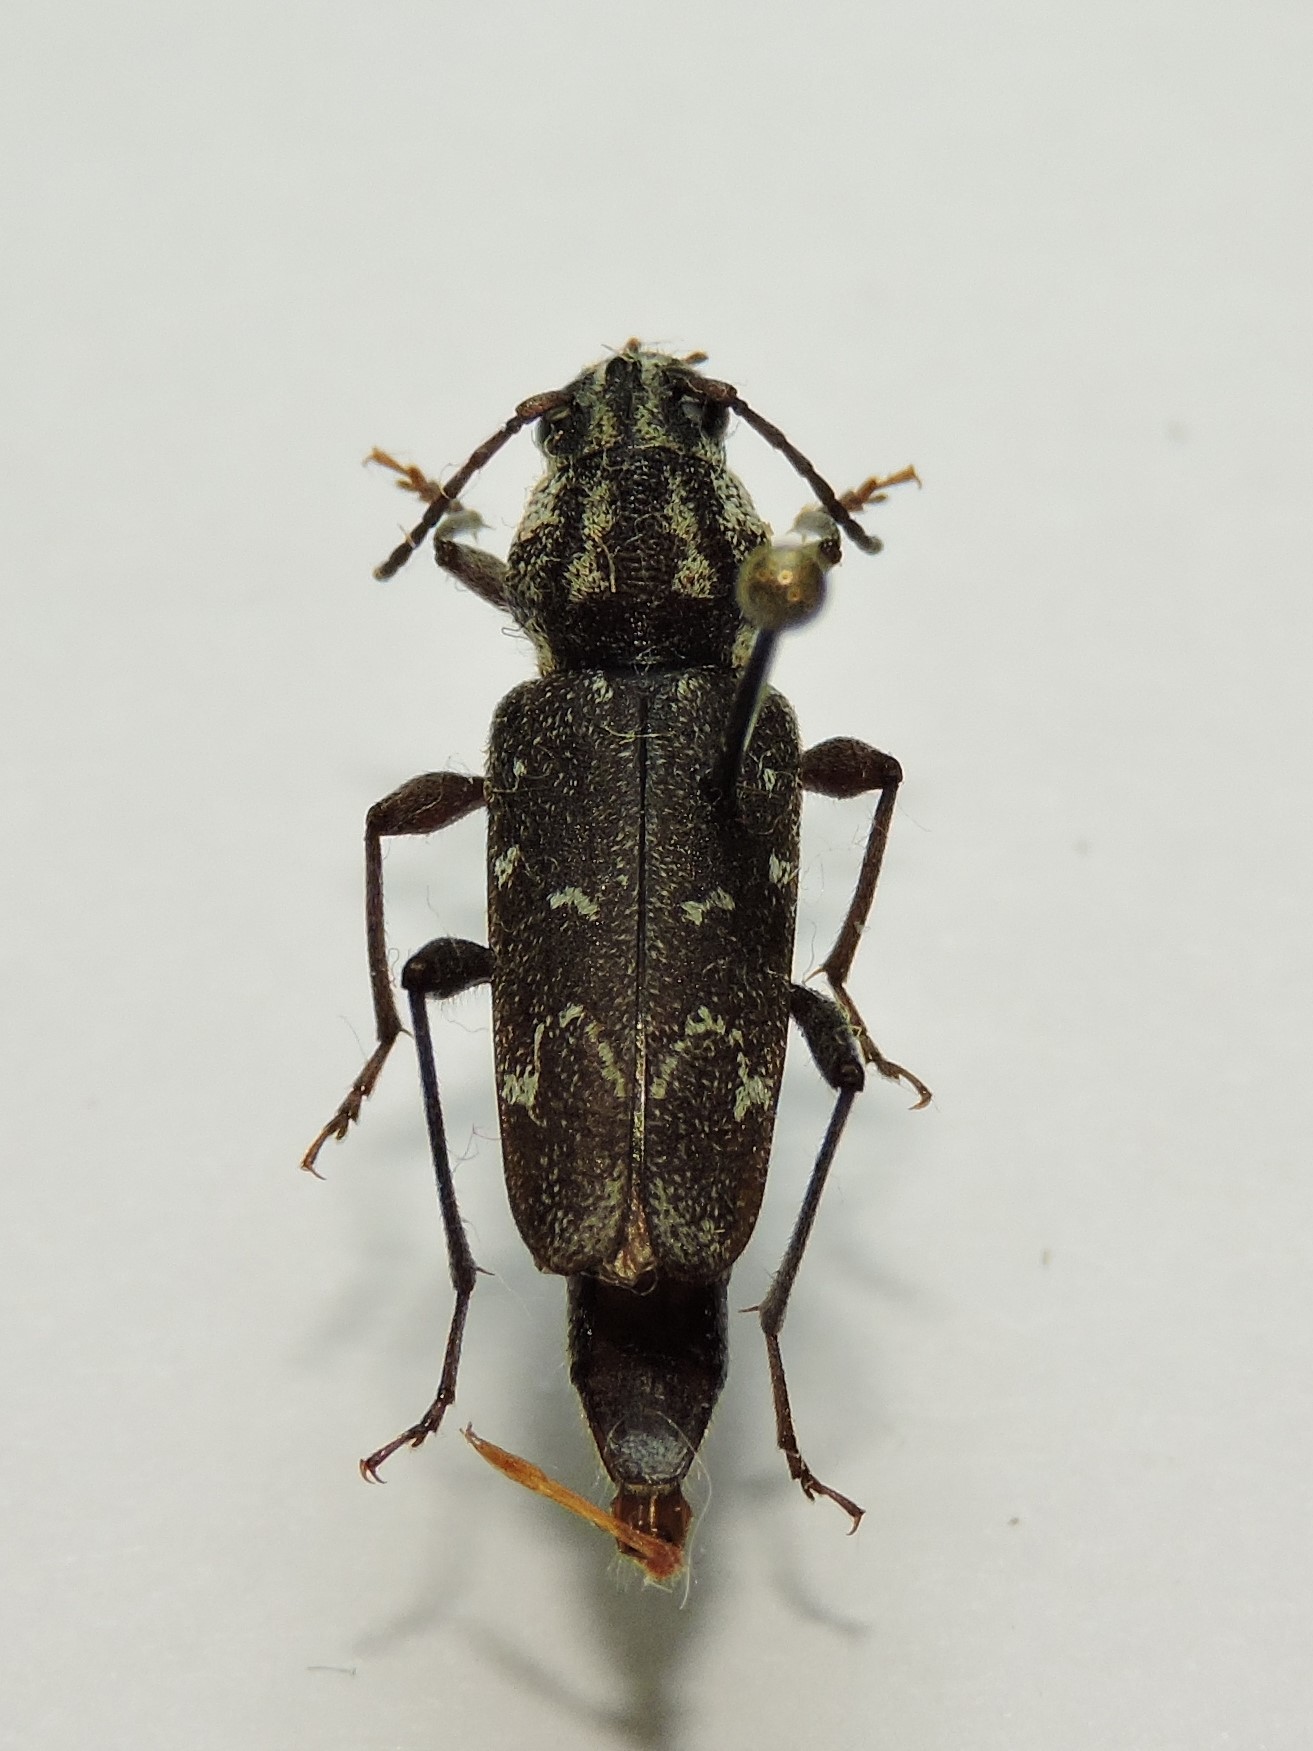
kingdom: Animalia
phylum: Arthropoda
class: Insecta
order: Coleoptera
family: Cerambycidae
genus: Xylotrechus
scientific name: Xylotrechus rusticus
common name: Grey tiger long-horned beetle
